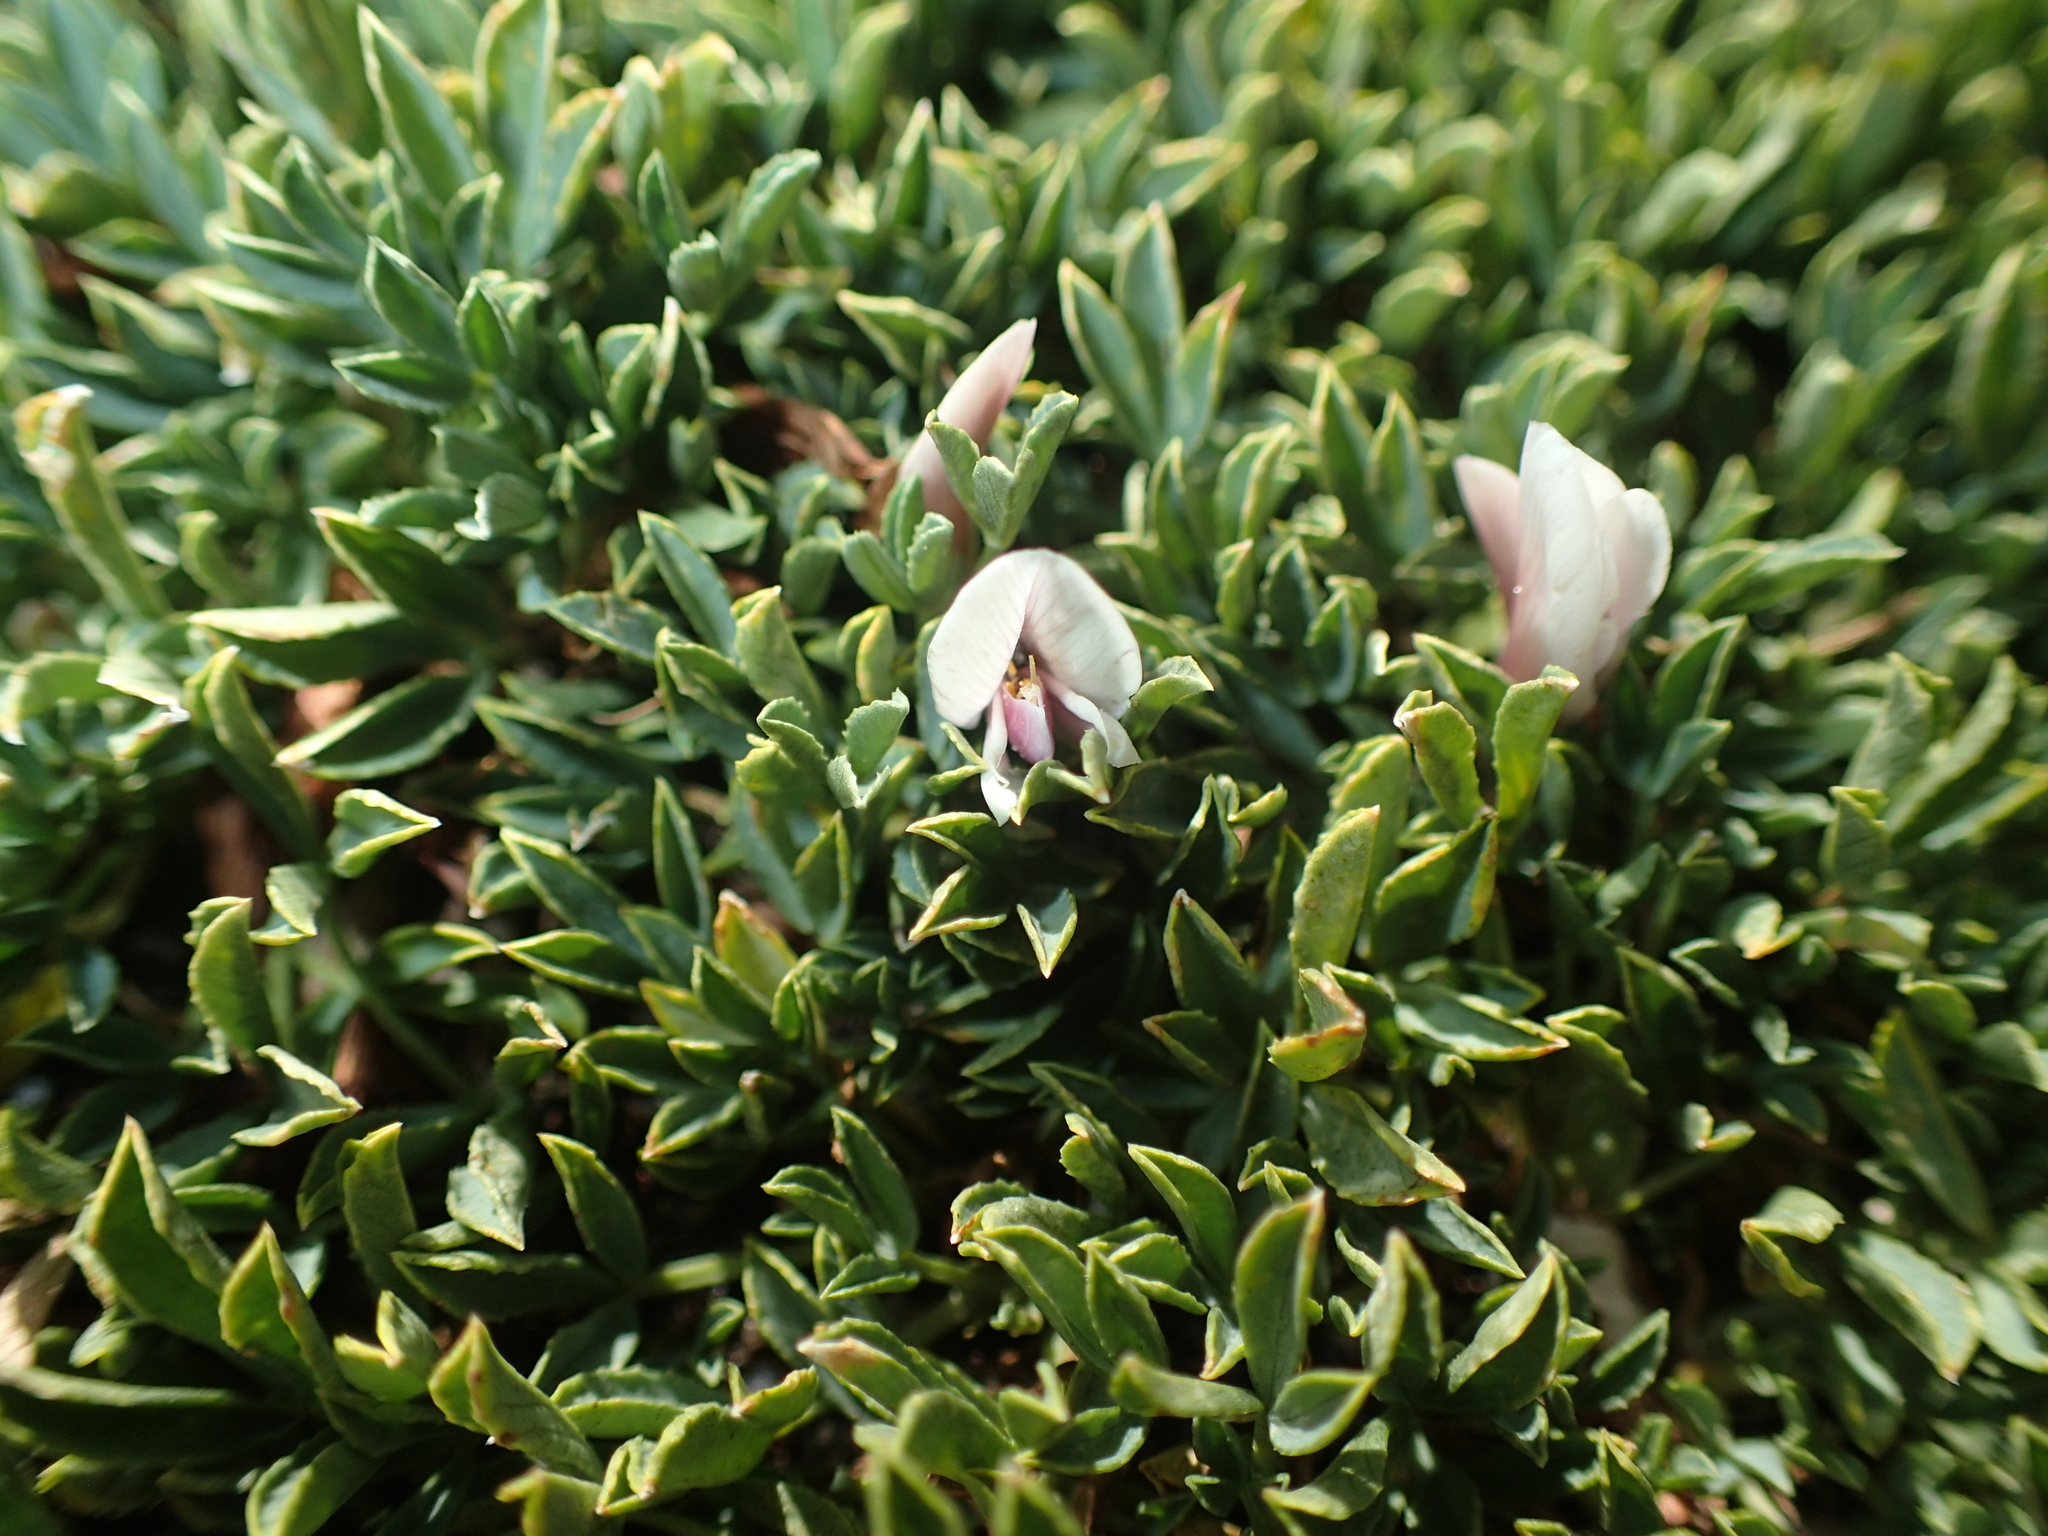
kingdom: Plantae
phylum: Tracheophyta
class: Magnoliopsida
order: Fabales
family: Fabaceae
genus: Trifolium
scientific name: Trifolium nanum
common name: Tundra clover
